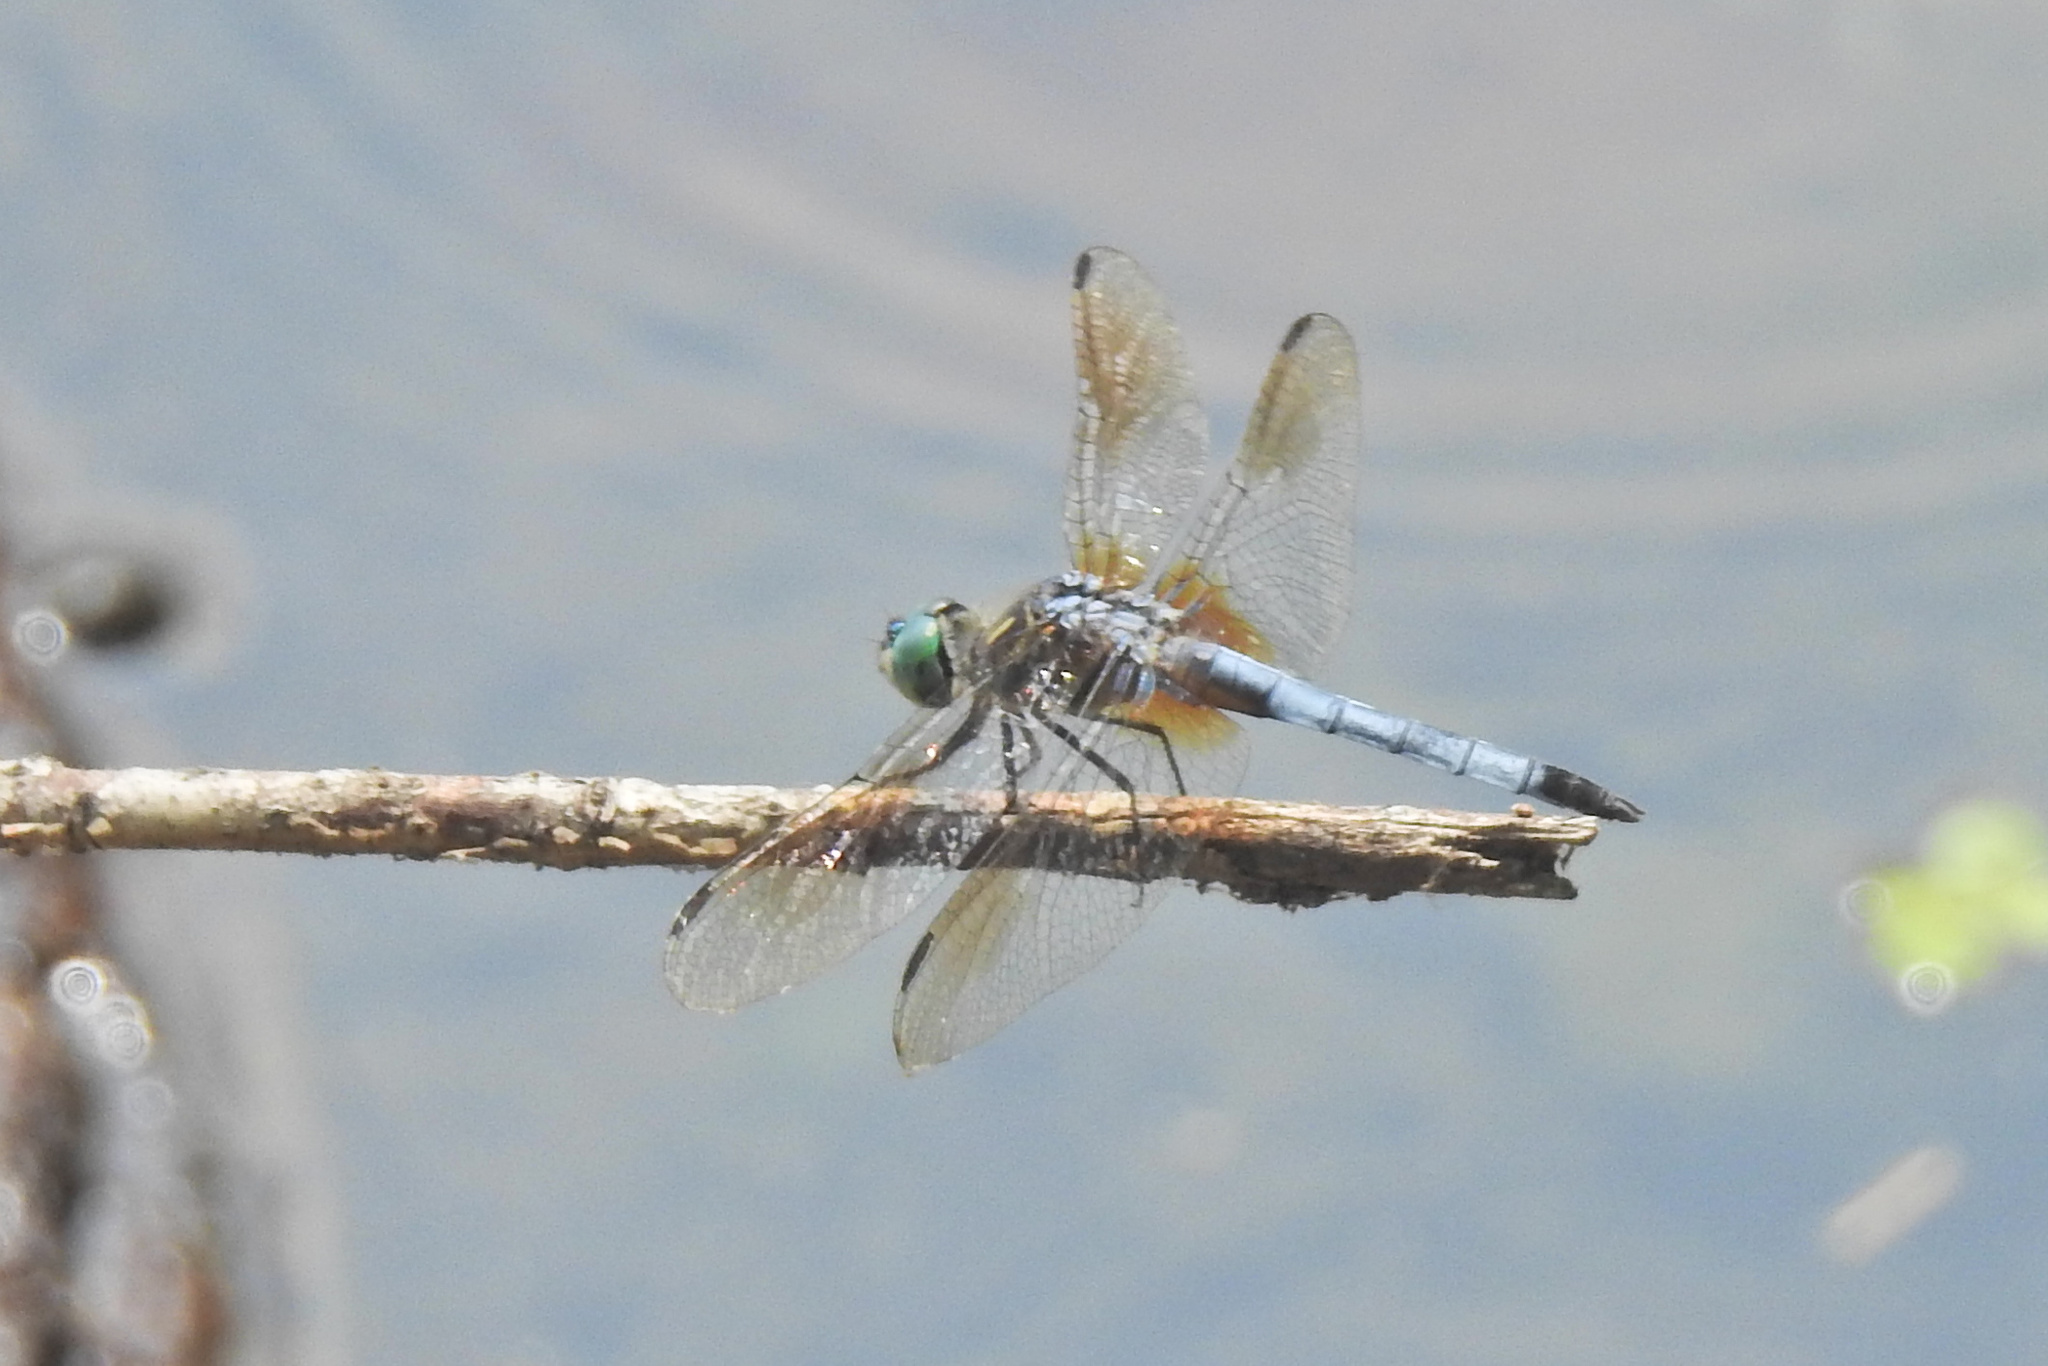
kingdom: Animalia
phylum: Arthropoda
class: Insecta
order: Odonata
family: Libellulidae
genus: Pachydiplax
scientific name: Pachydiplax longipennis
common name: Blue dasher
